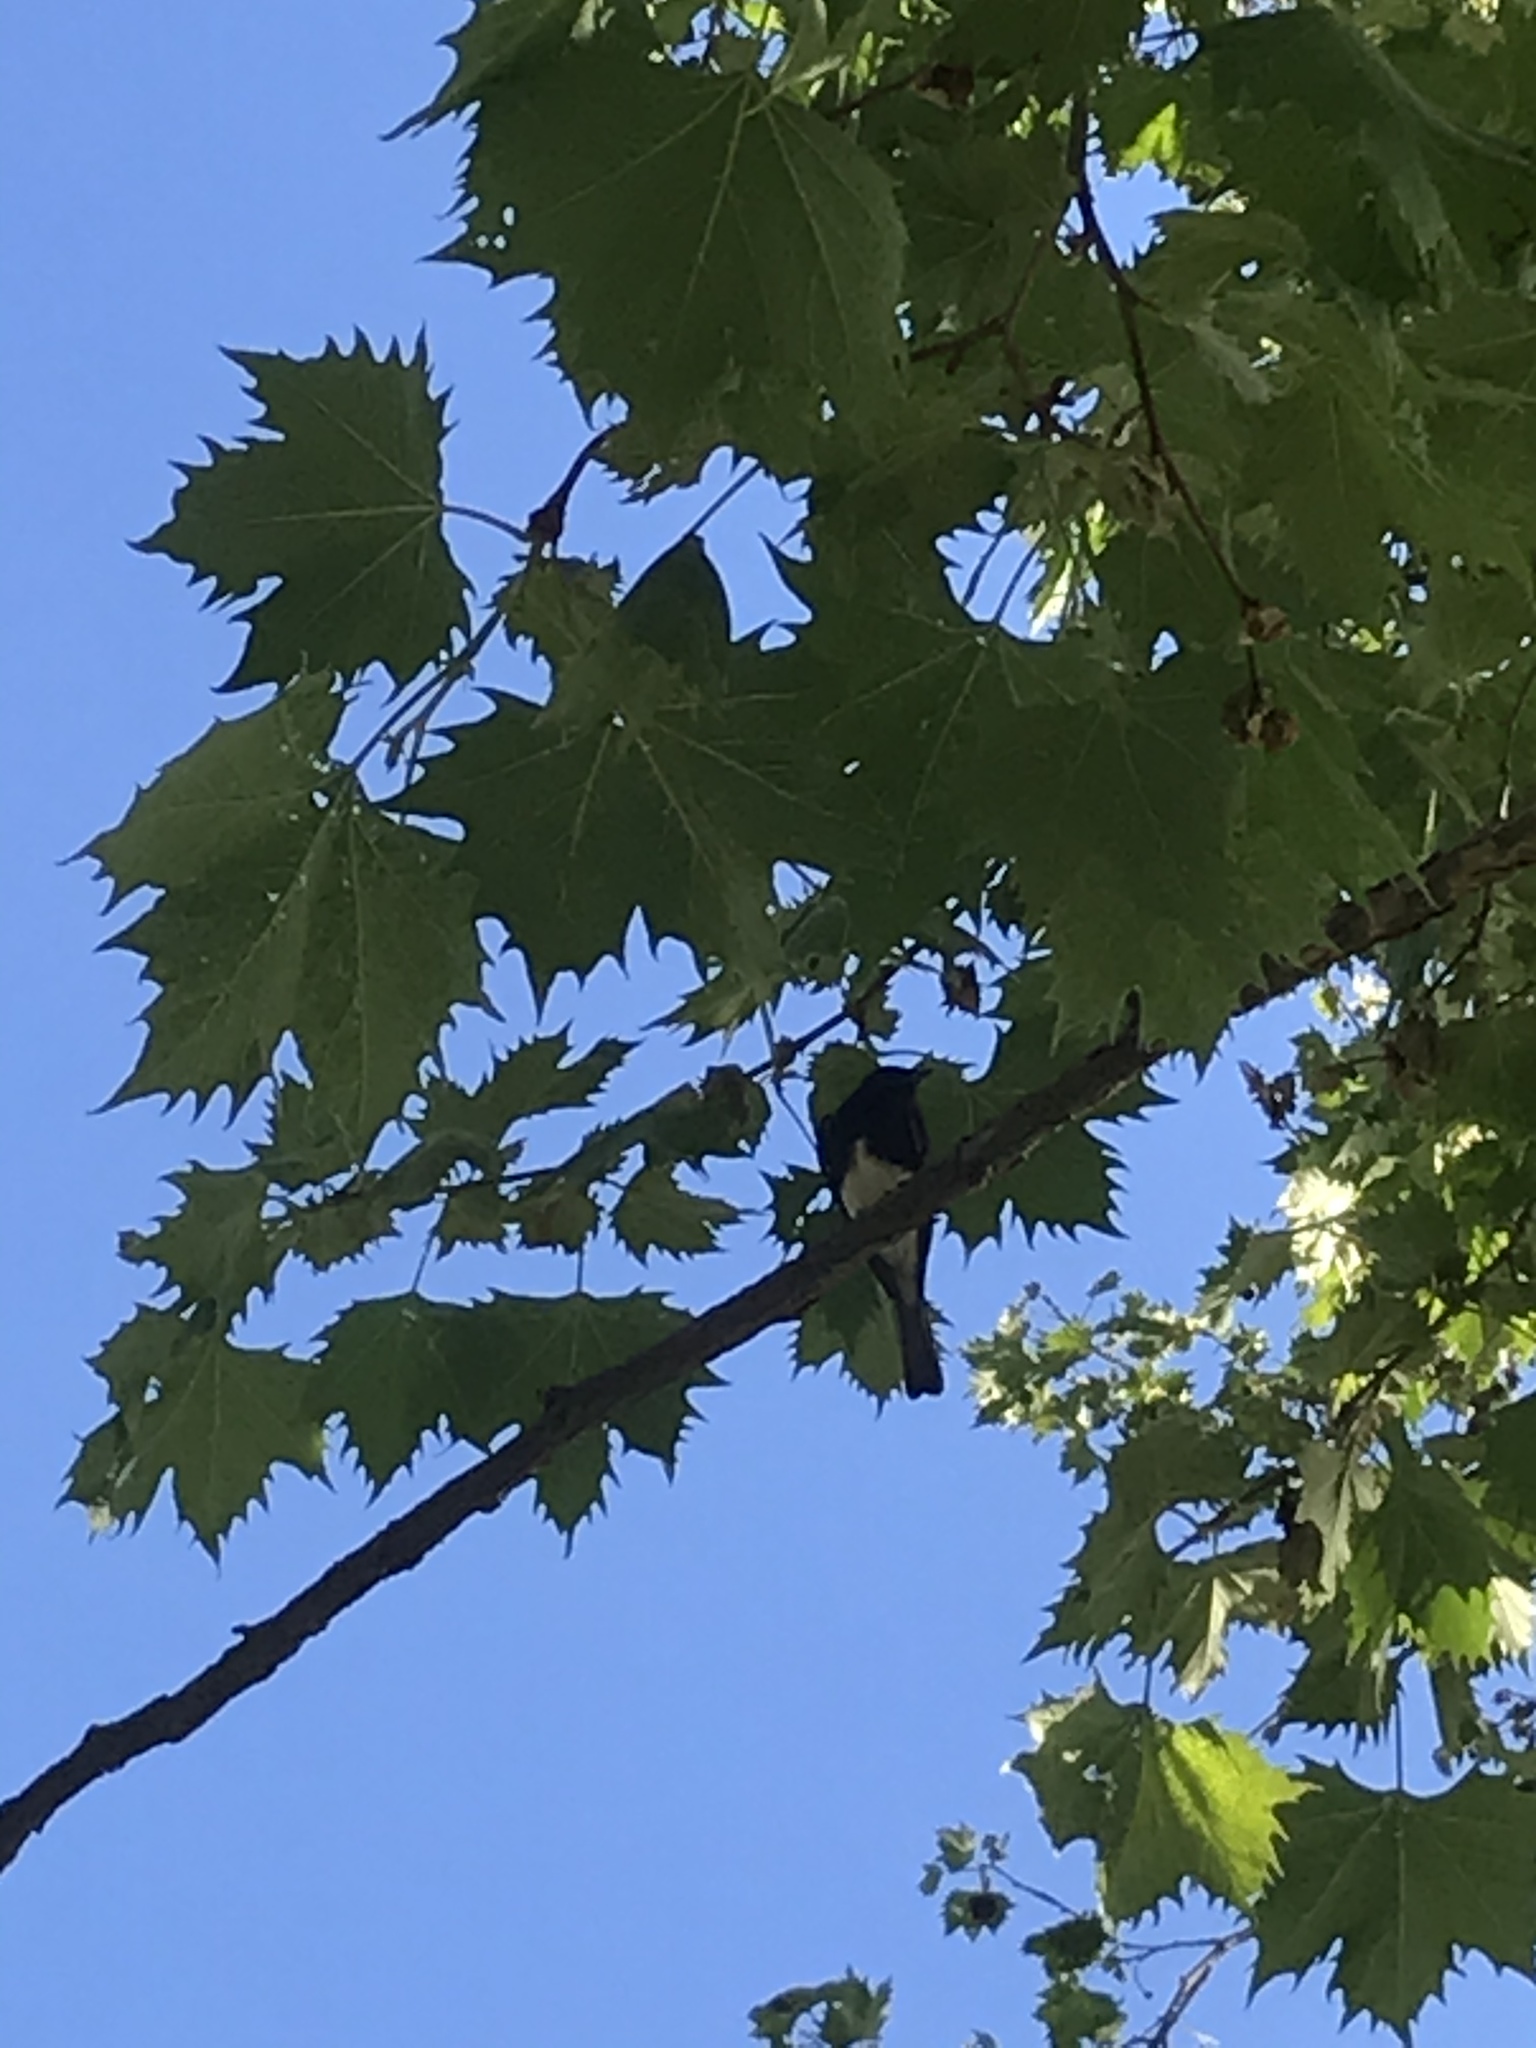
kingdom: Animalia
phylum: Chordata
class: Aves
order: Passeriformes
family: Tyrannidae
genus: Sayornis
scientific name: Sayornis nigricans
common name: Black phoebe
